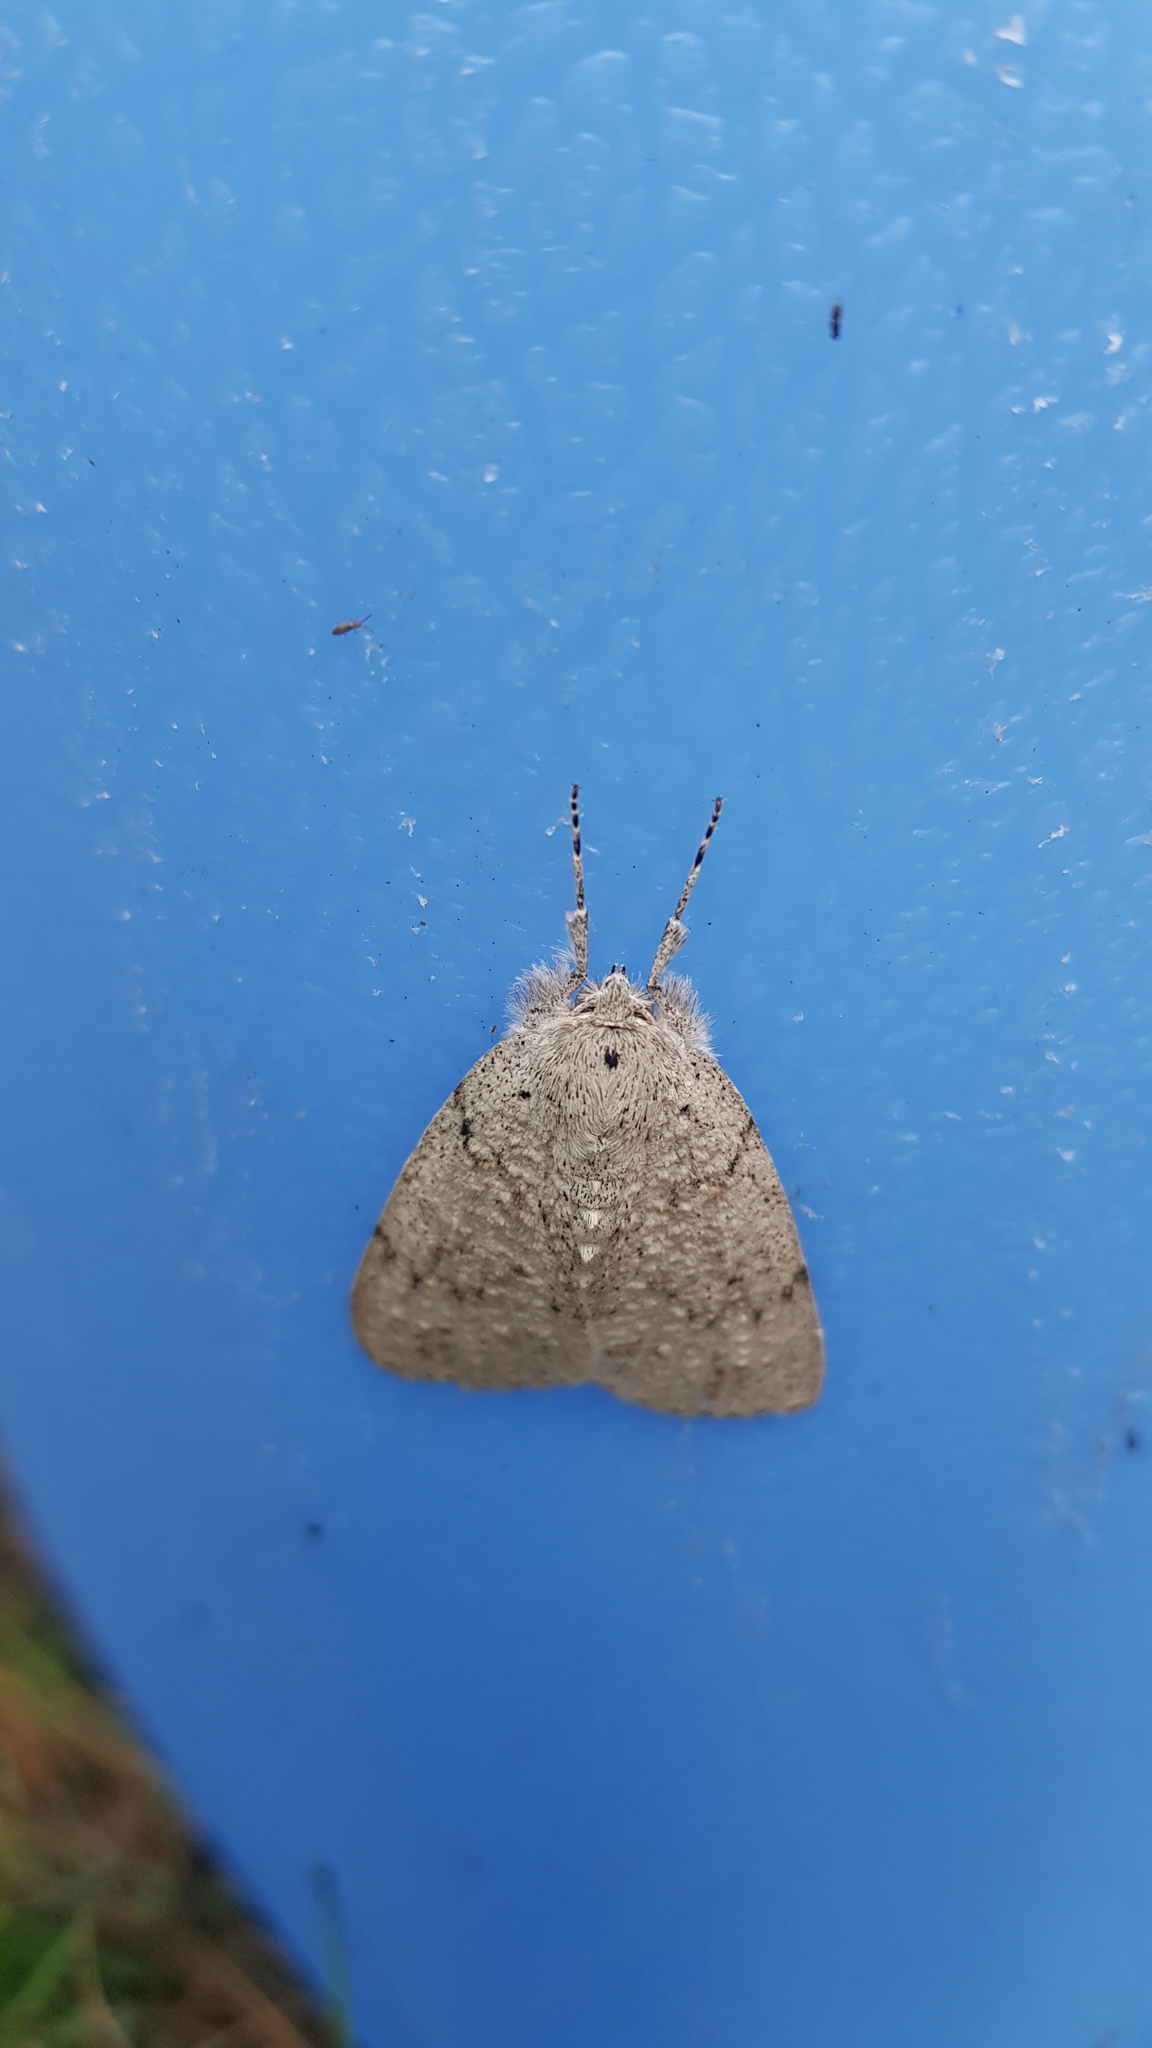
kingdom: Animalia
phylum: Arthropoda
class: Insecta
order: Lepidoptera
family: Geometridae
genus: Mochlotona
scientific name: Mochlotona phasmatias
